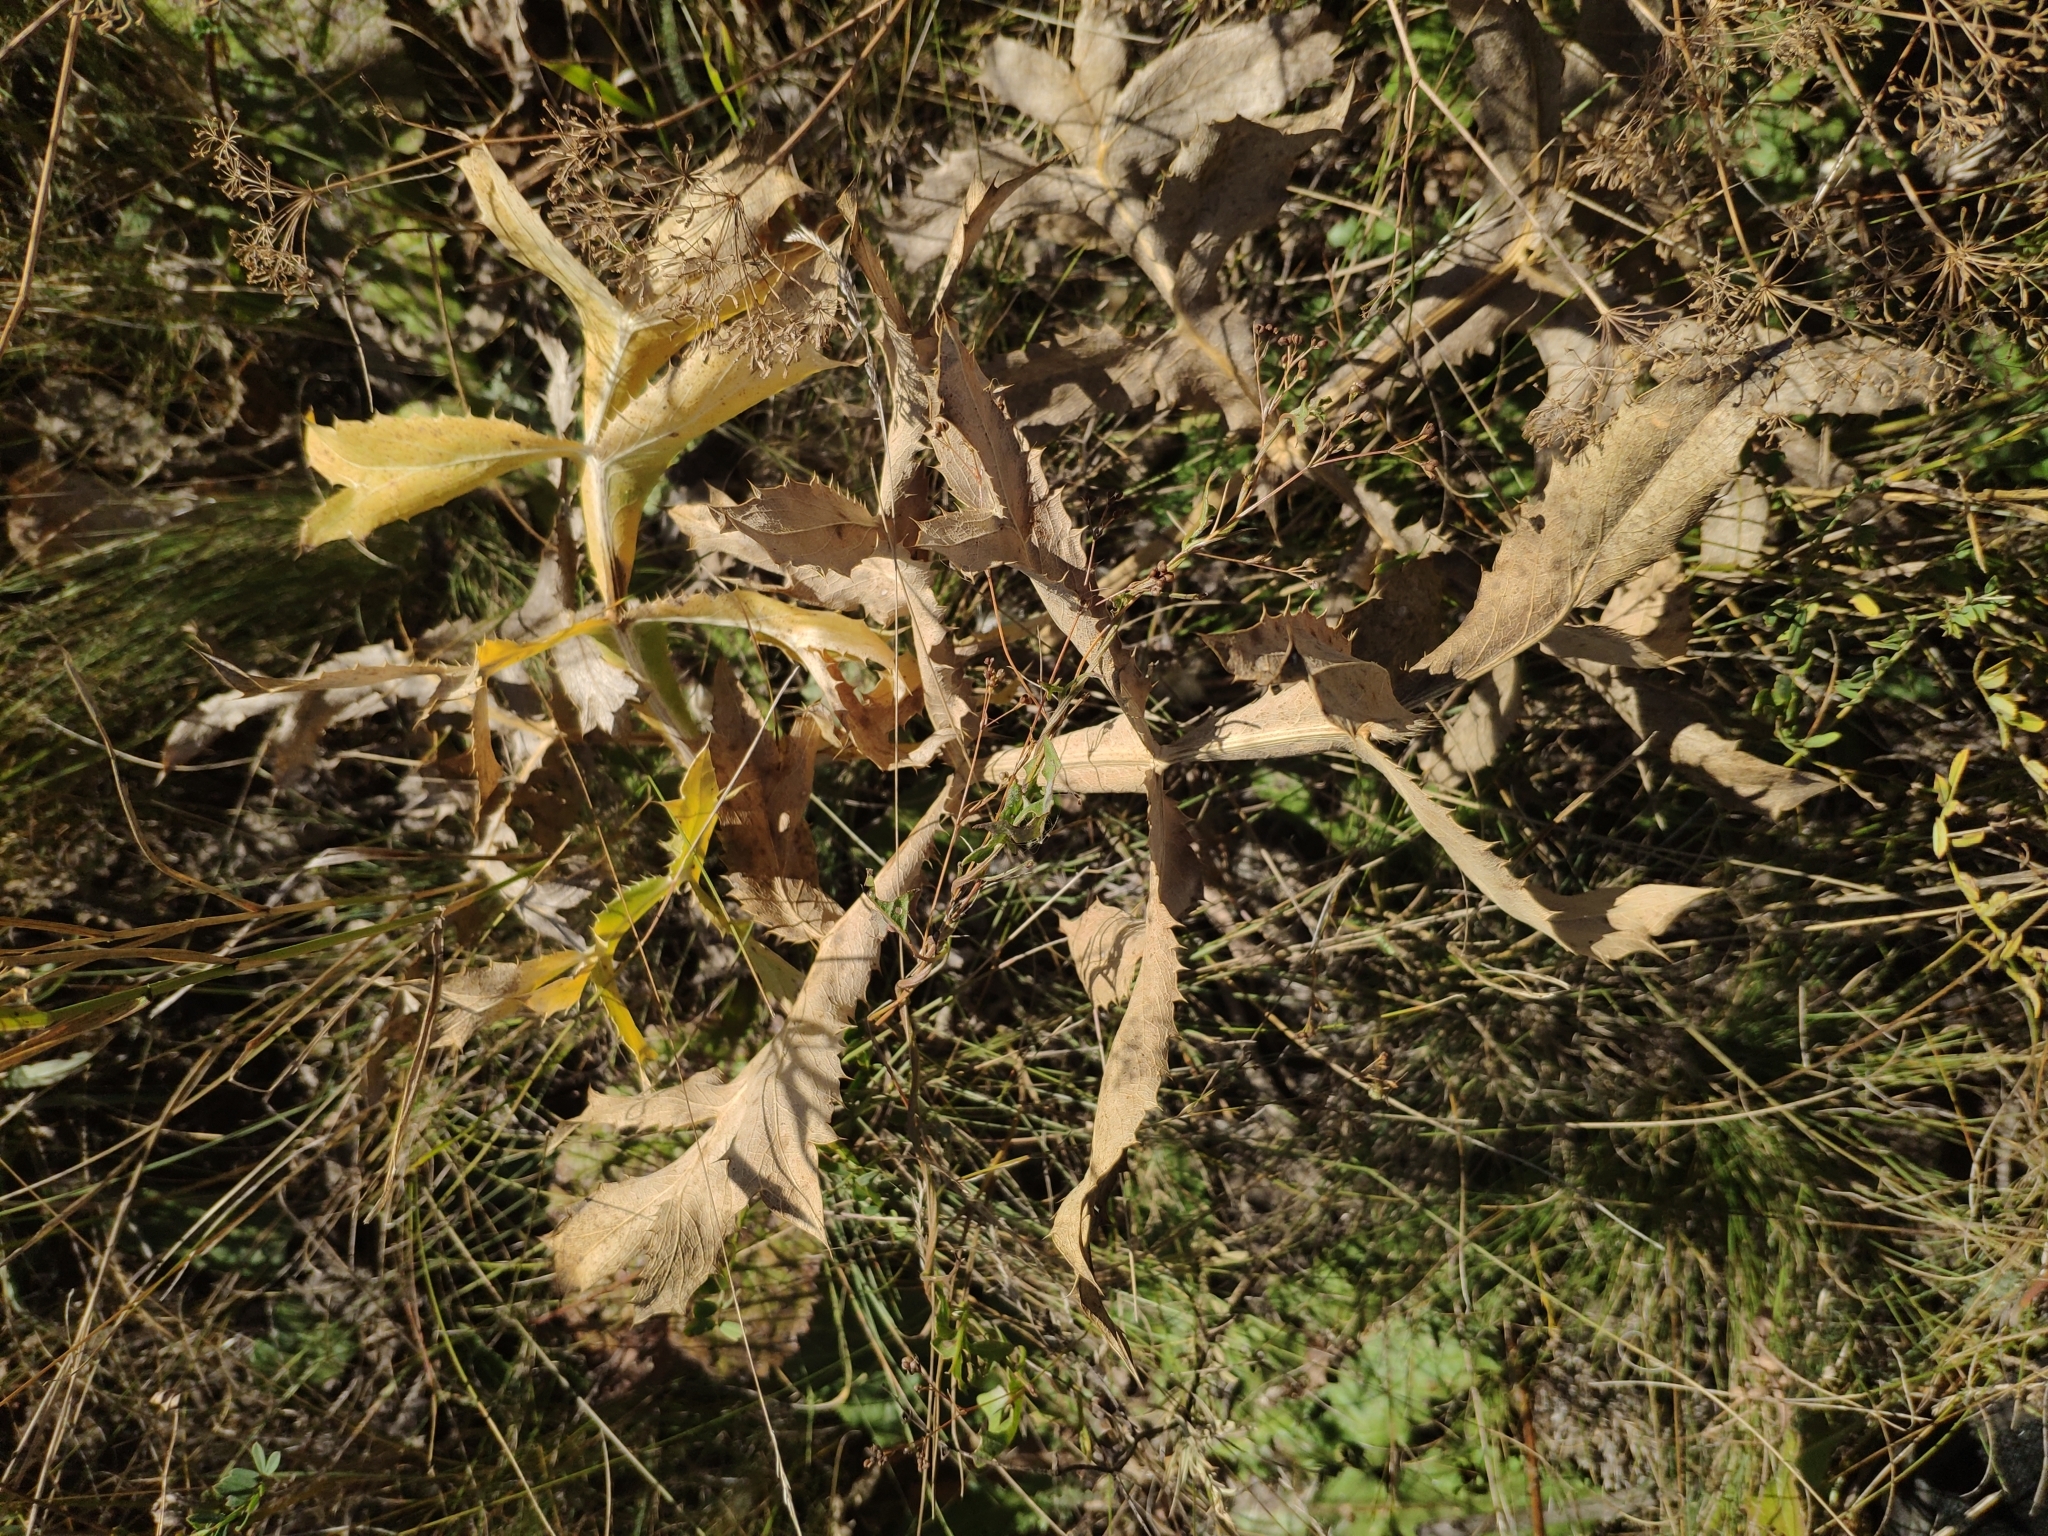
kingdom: Plantae
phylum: Tracheophyta
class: Magnoliopsida
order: Apiales
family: Apiaceae
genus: Eryngium
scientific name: Eryngium campestre
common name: Field eryngo
